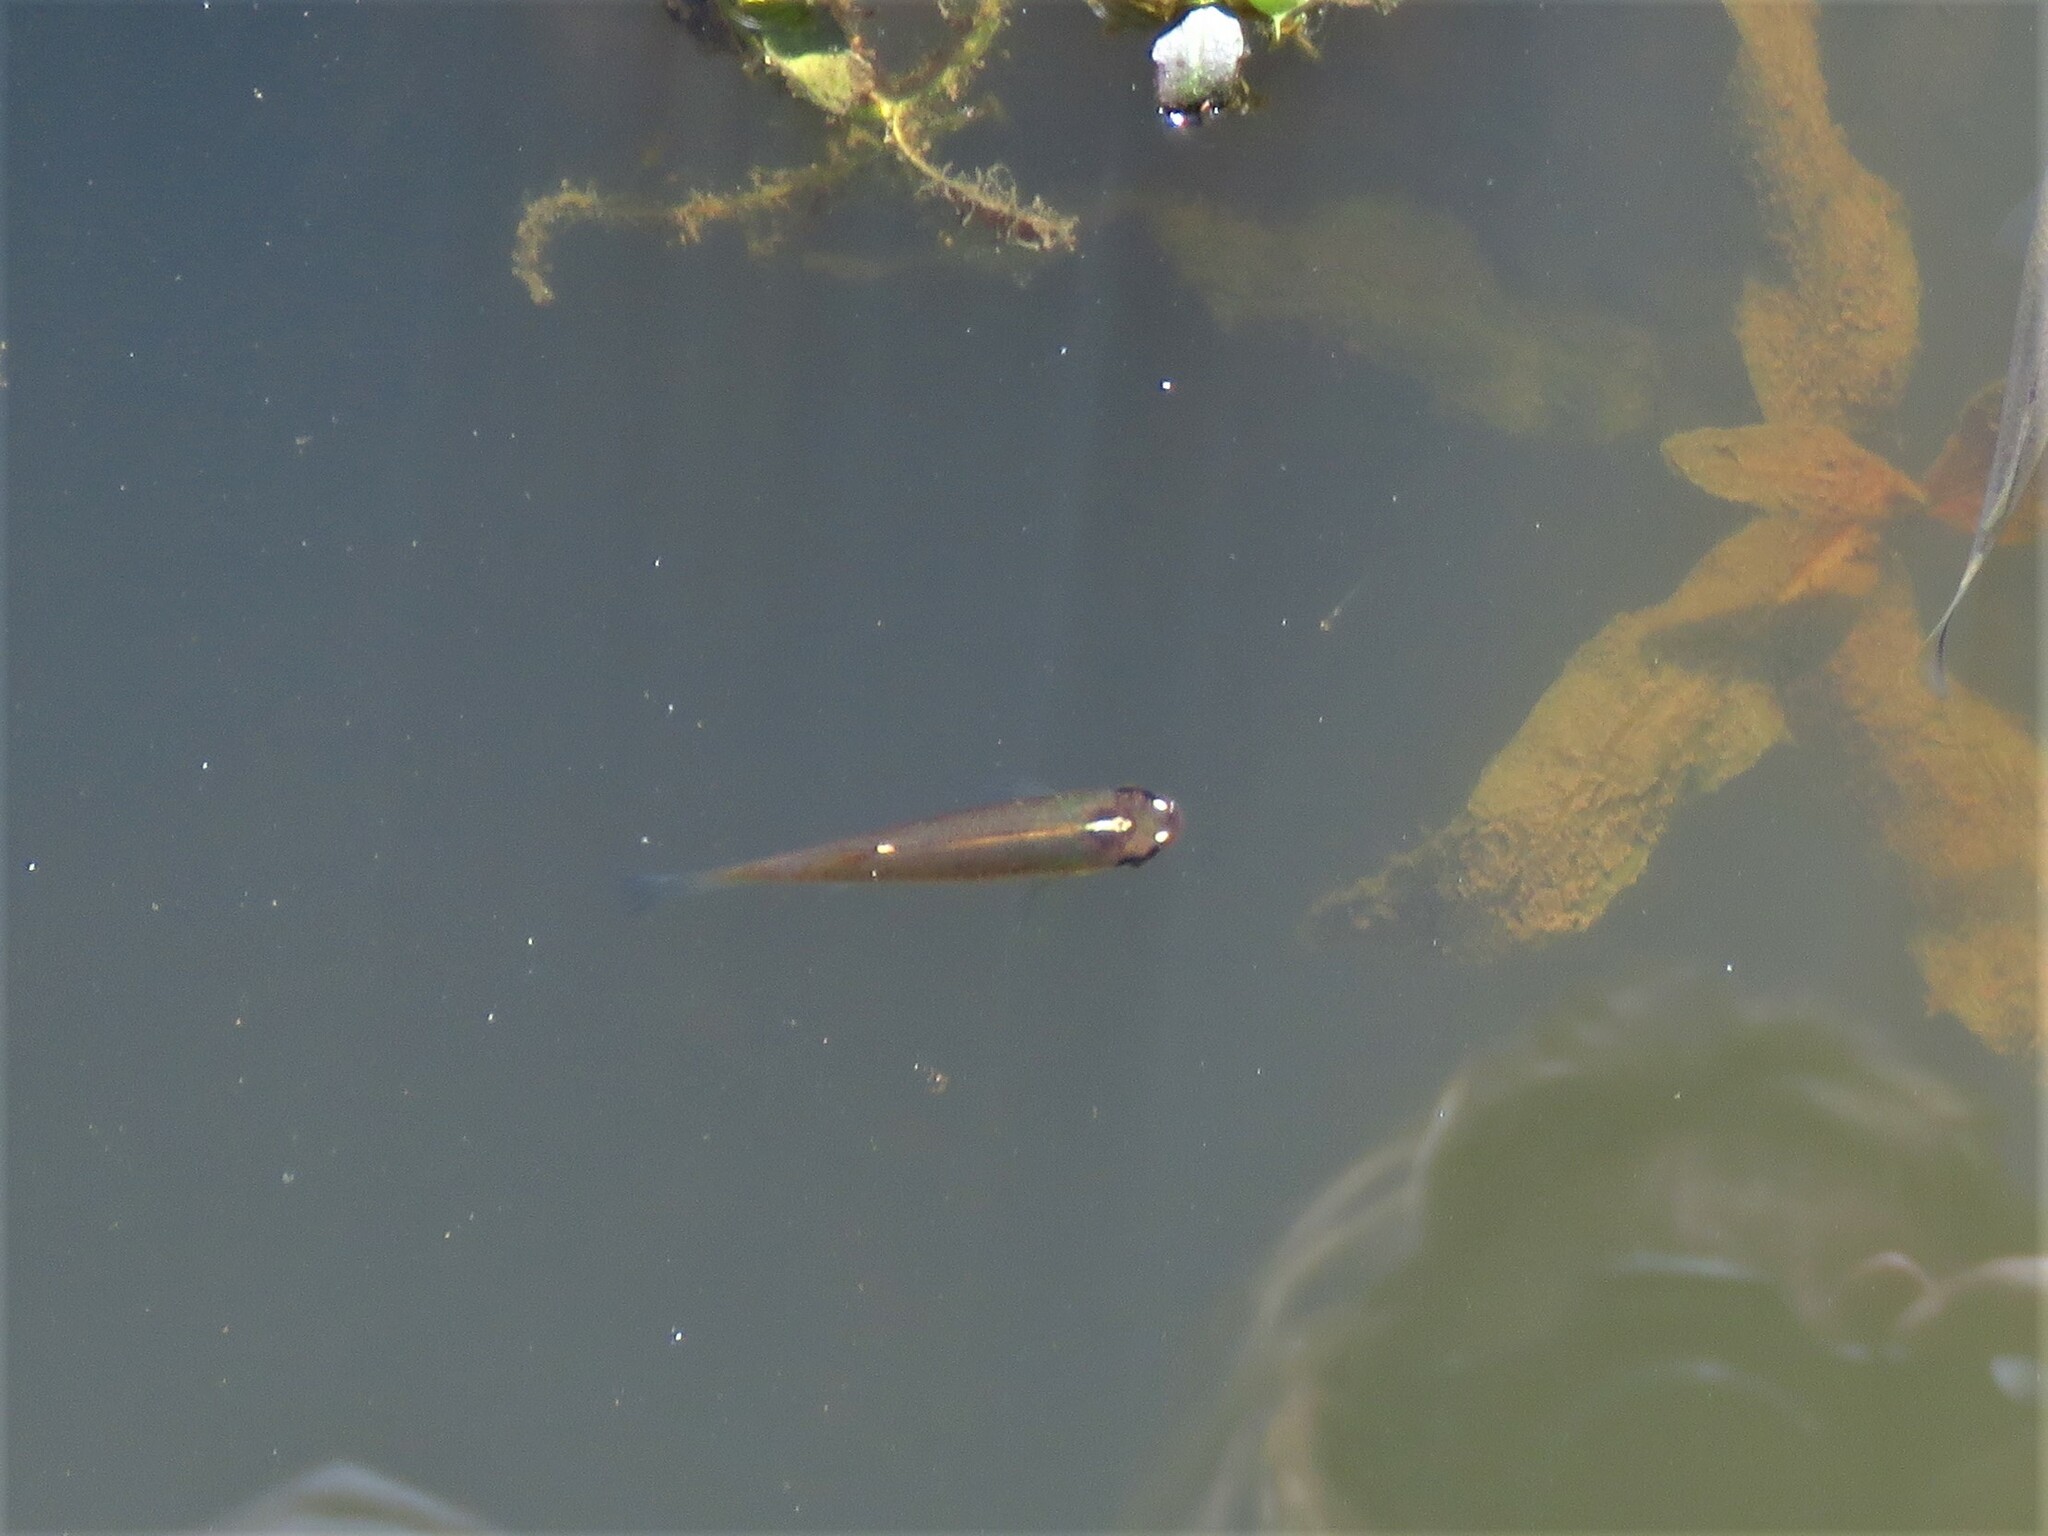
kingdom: Animalia
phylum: Chordata
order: Cyprinodontiformes
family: Fundulidae
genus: Fundulus
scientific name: Fundulus blairae
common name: Lowland topminnow
